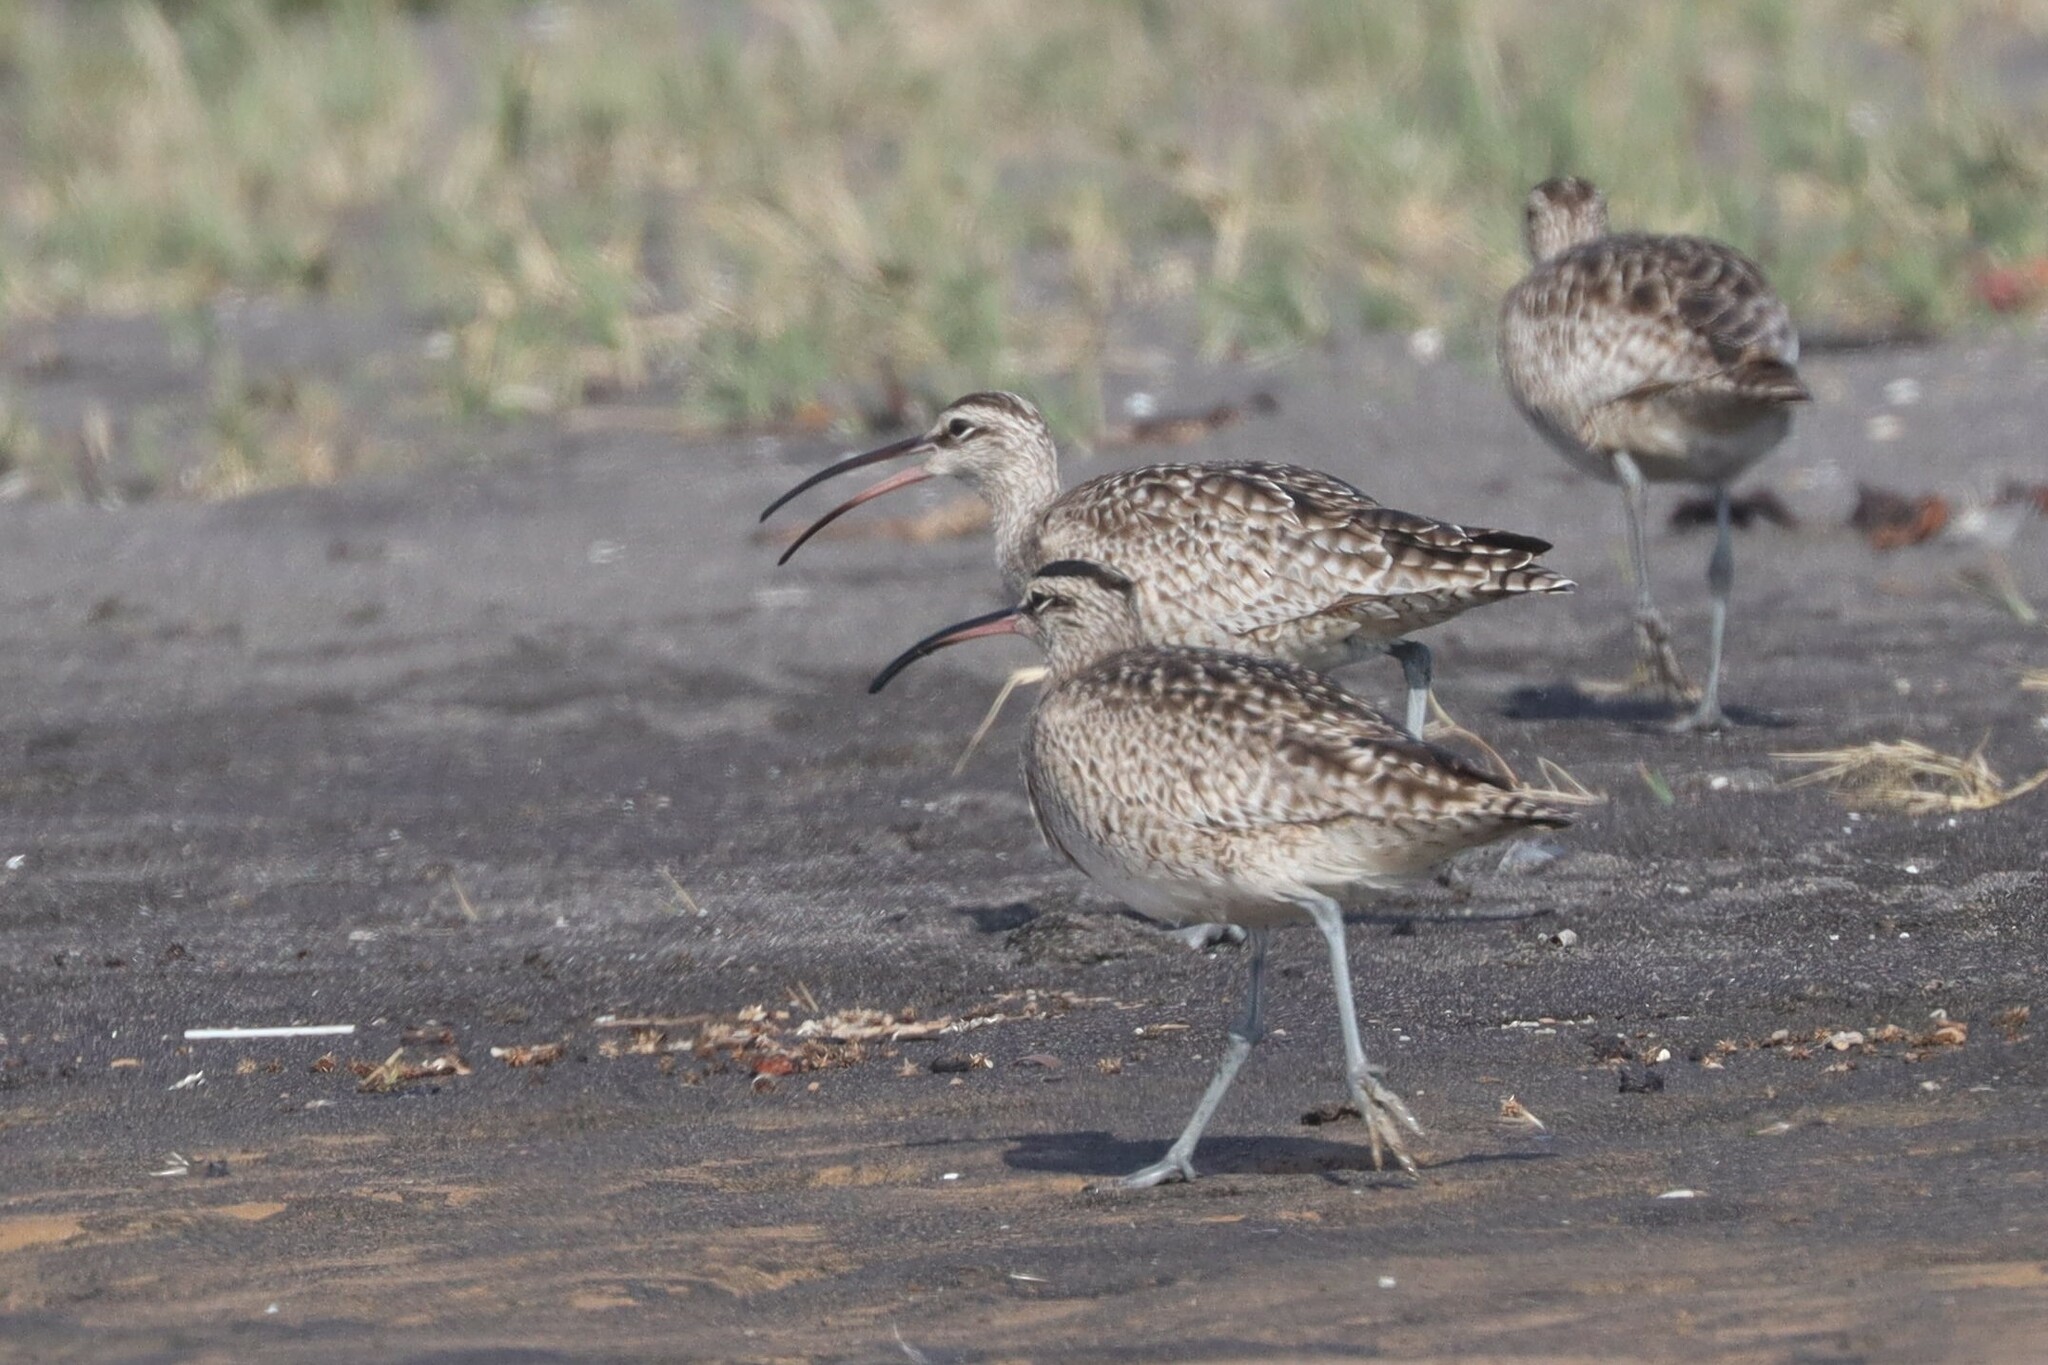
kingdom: Animalia
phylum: Chordata
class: Aves
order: Charadriiformes
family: Scolopacidae
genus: Numenius
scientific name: Numenius phaeopus
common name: Whimbrel
